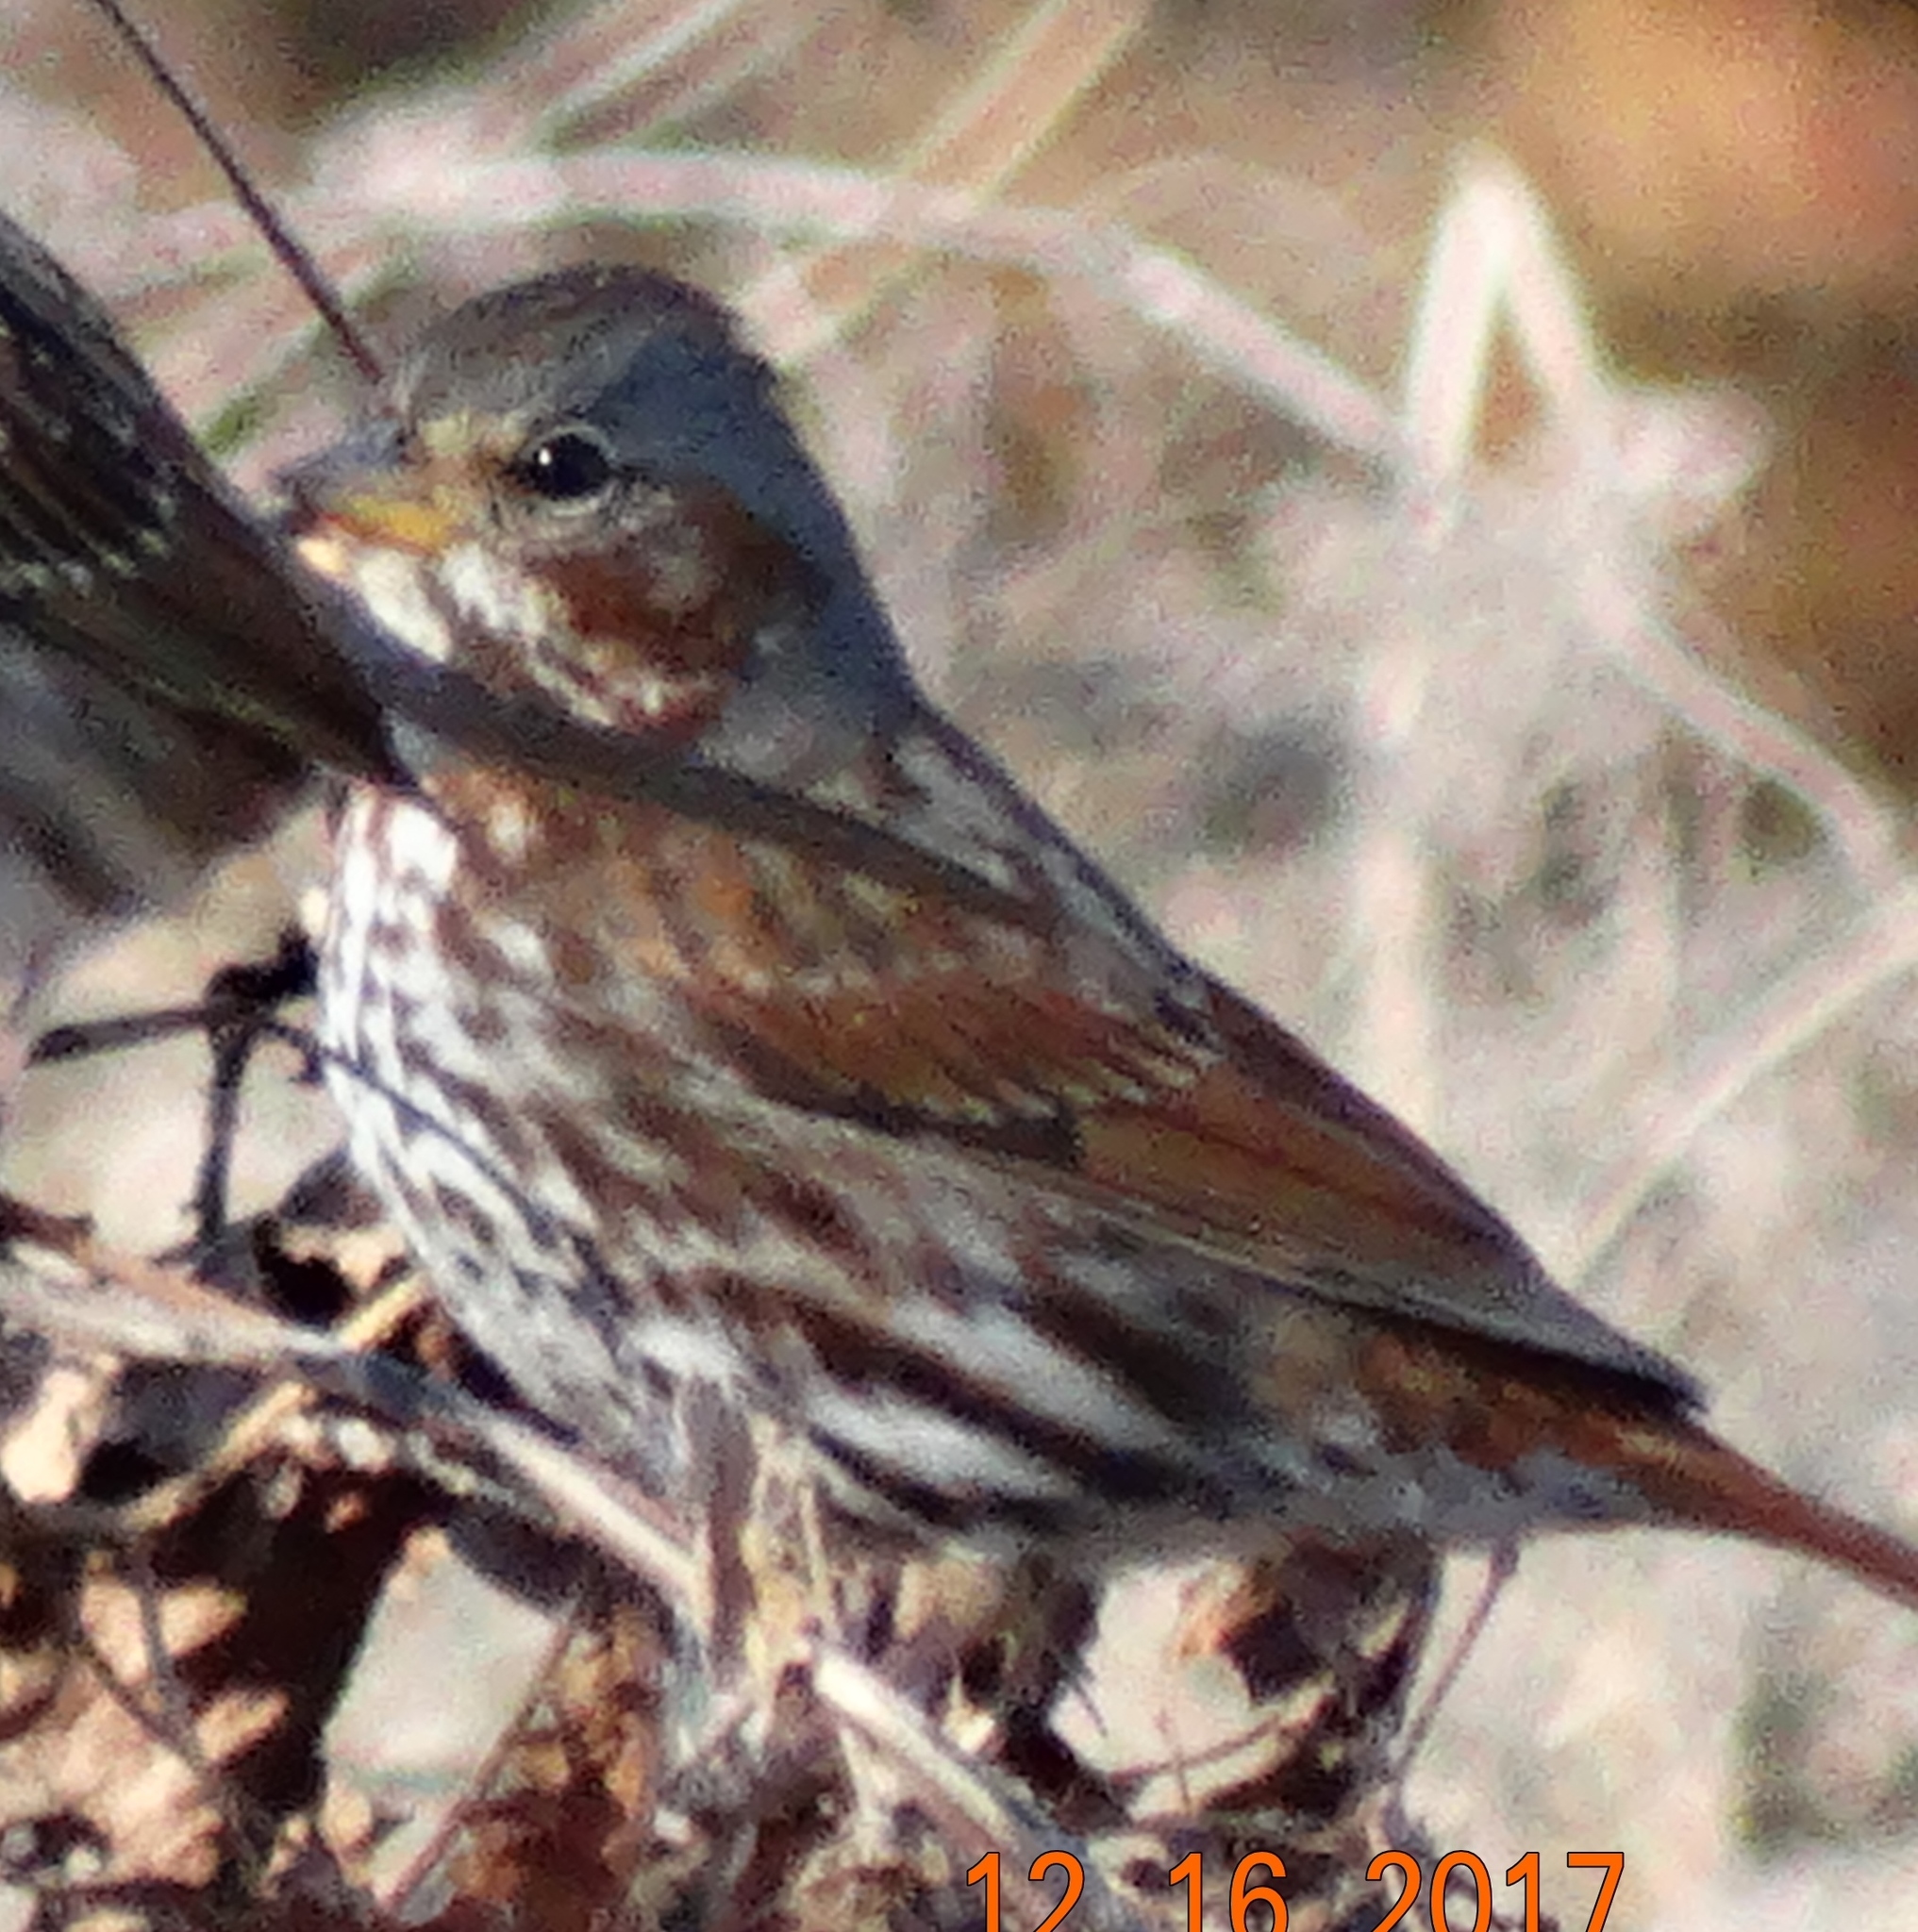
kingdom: Animalia
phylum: Chordata
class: Aves
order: Passeriformes
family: Passerellidae
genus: Passerella
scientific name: Passerella iliaca
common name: Fox sparrow
